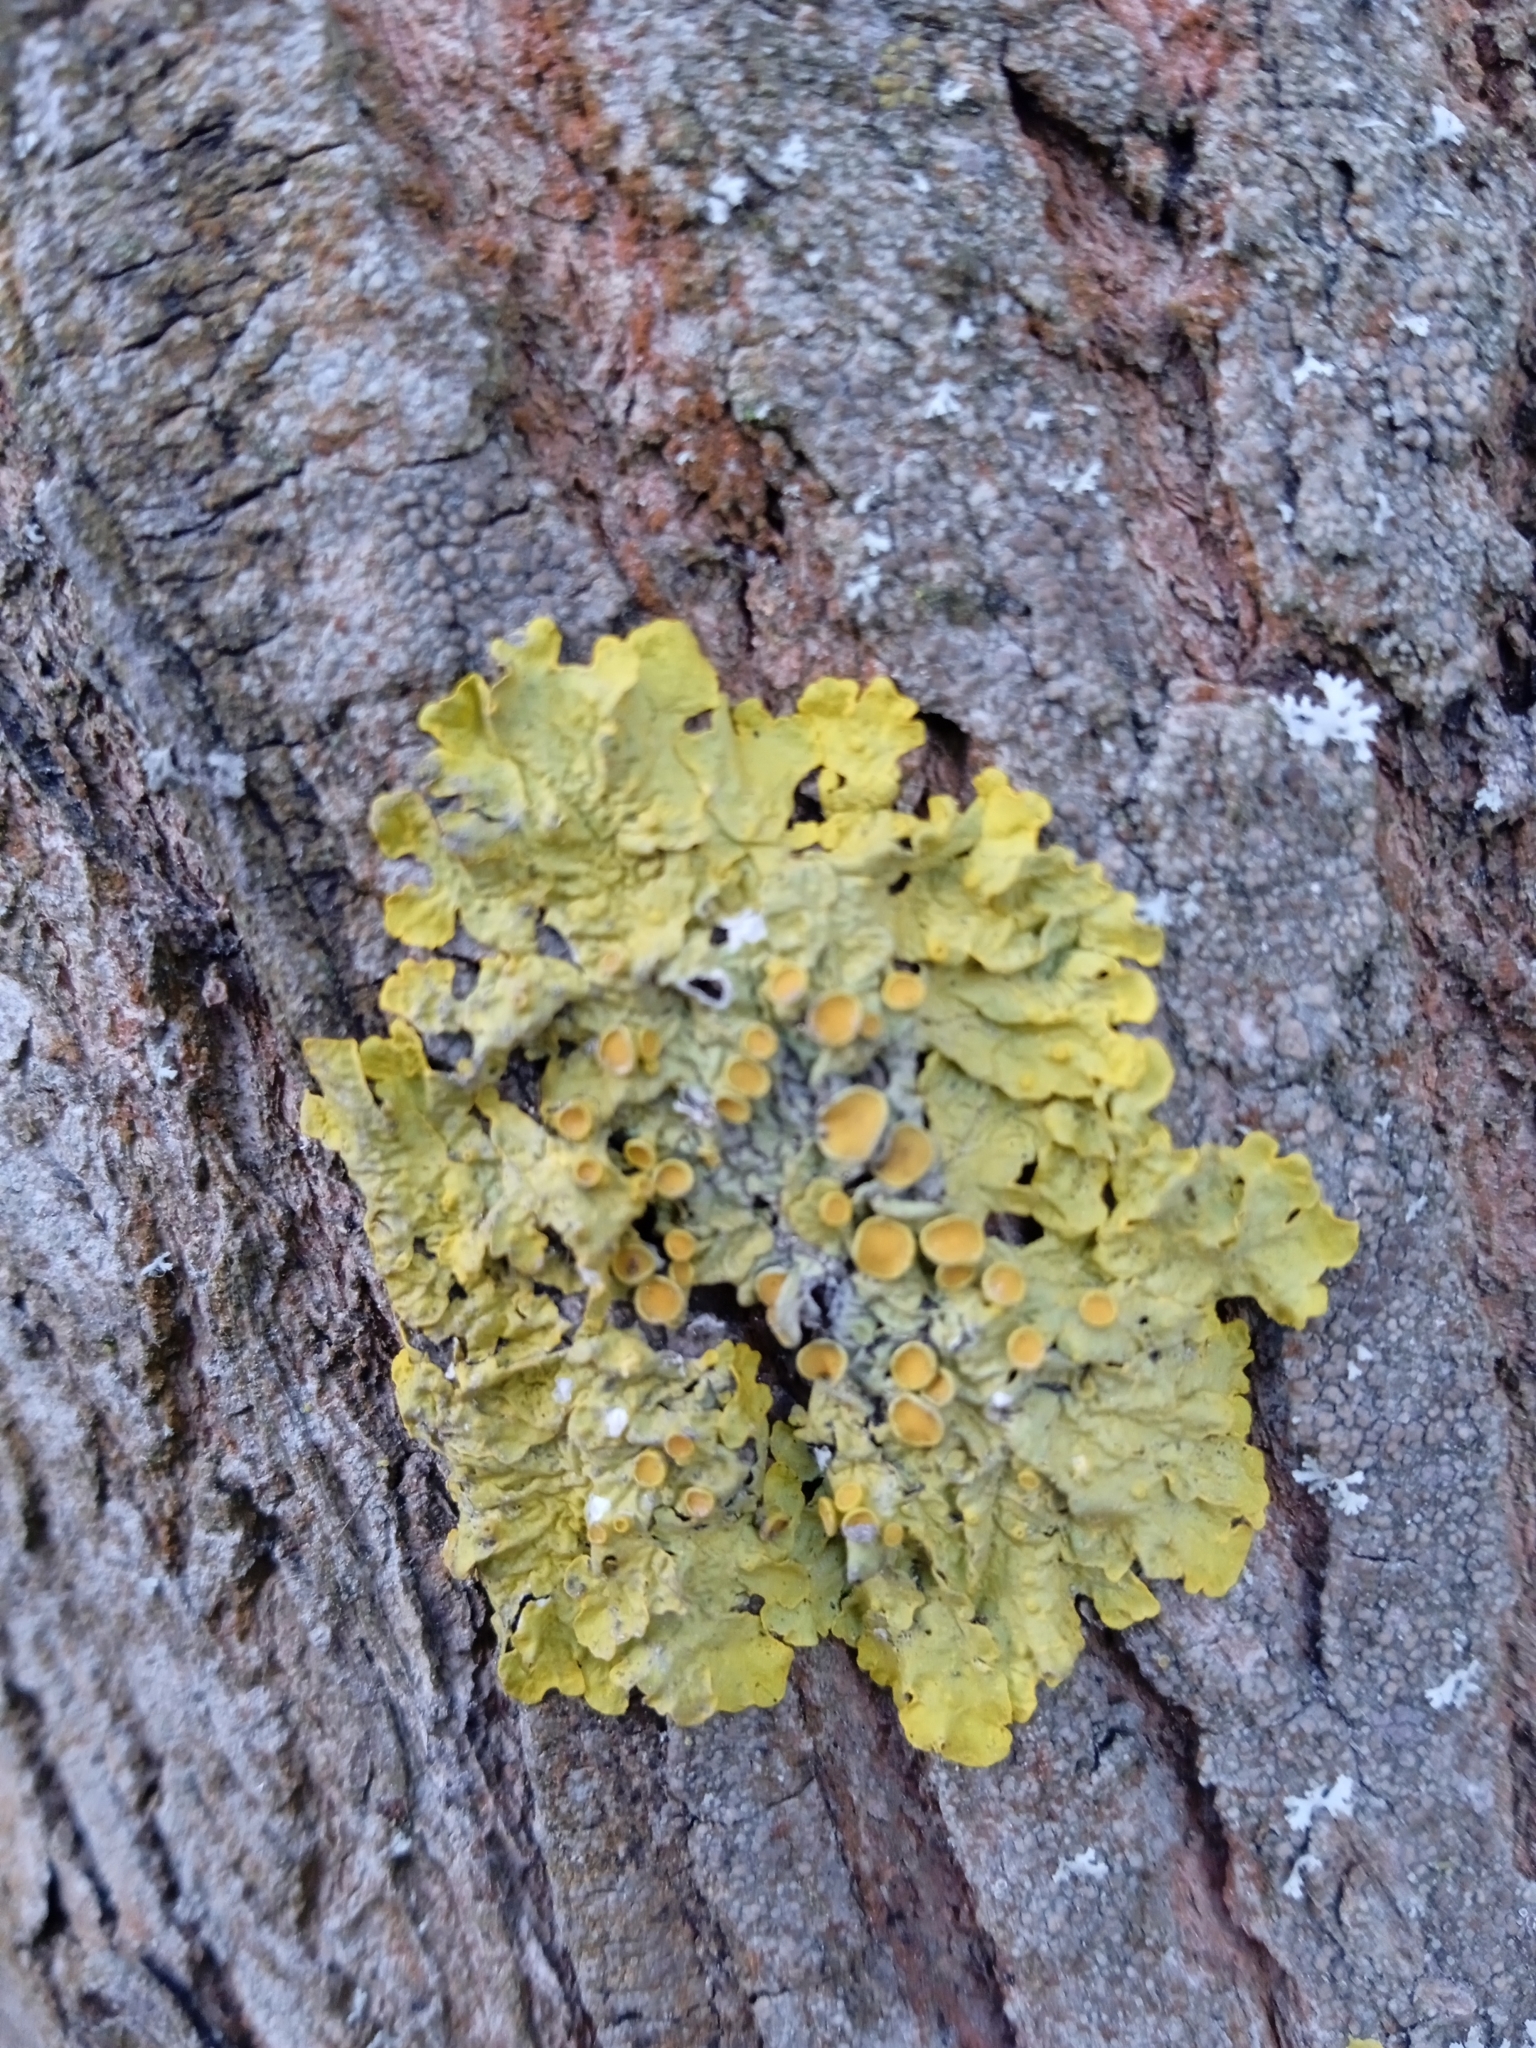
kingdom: Fungi
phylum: Ascomycota
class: Lecanoromycetes
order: Teloschistales
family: Teloschistaceae
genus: Xanthoria
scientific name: Xanthoria parietina
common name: Common orange lichen
